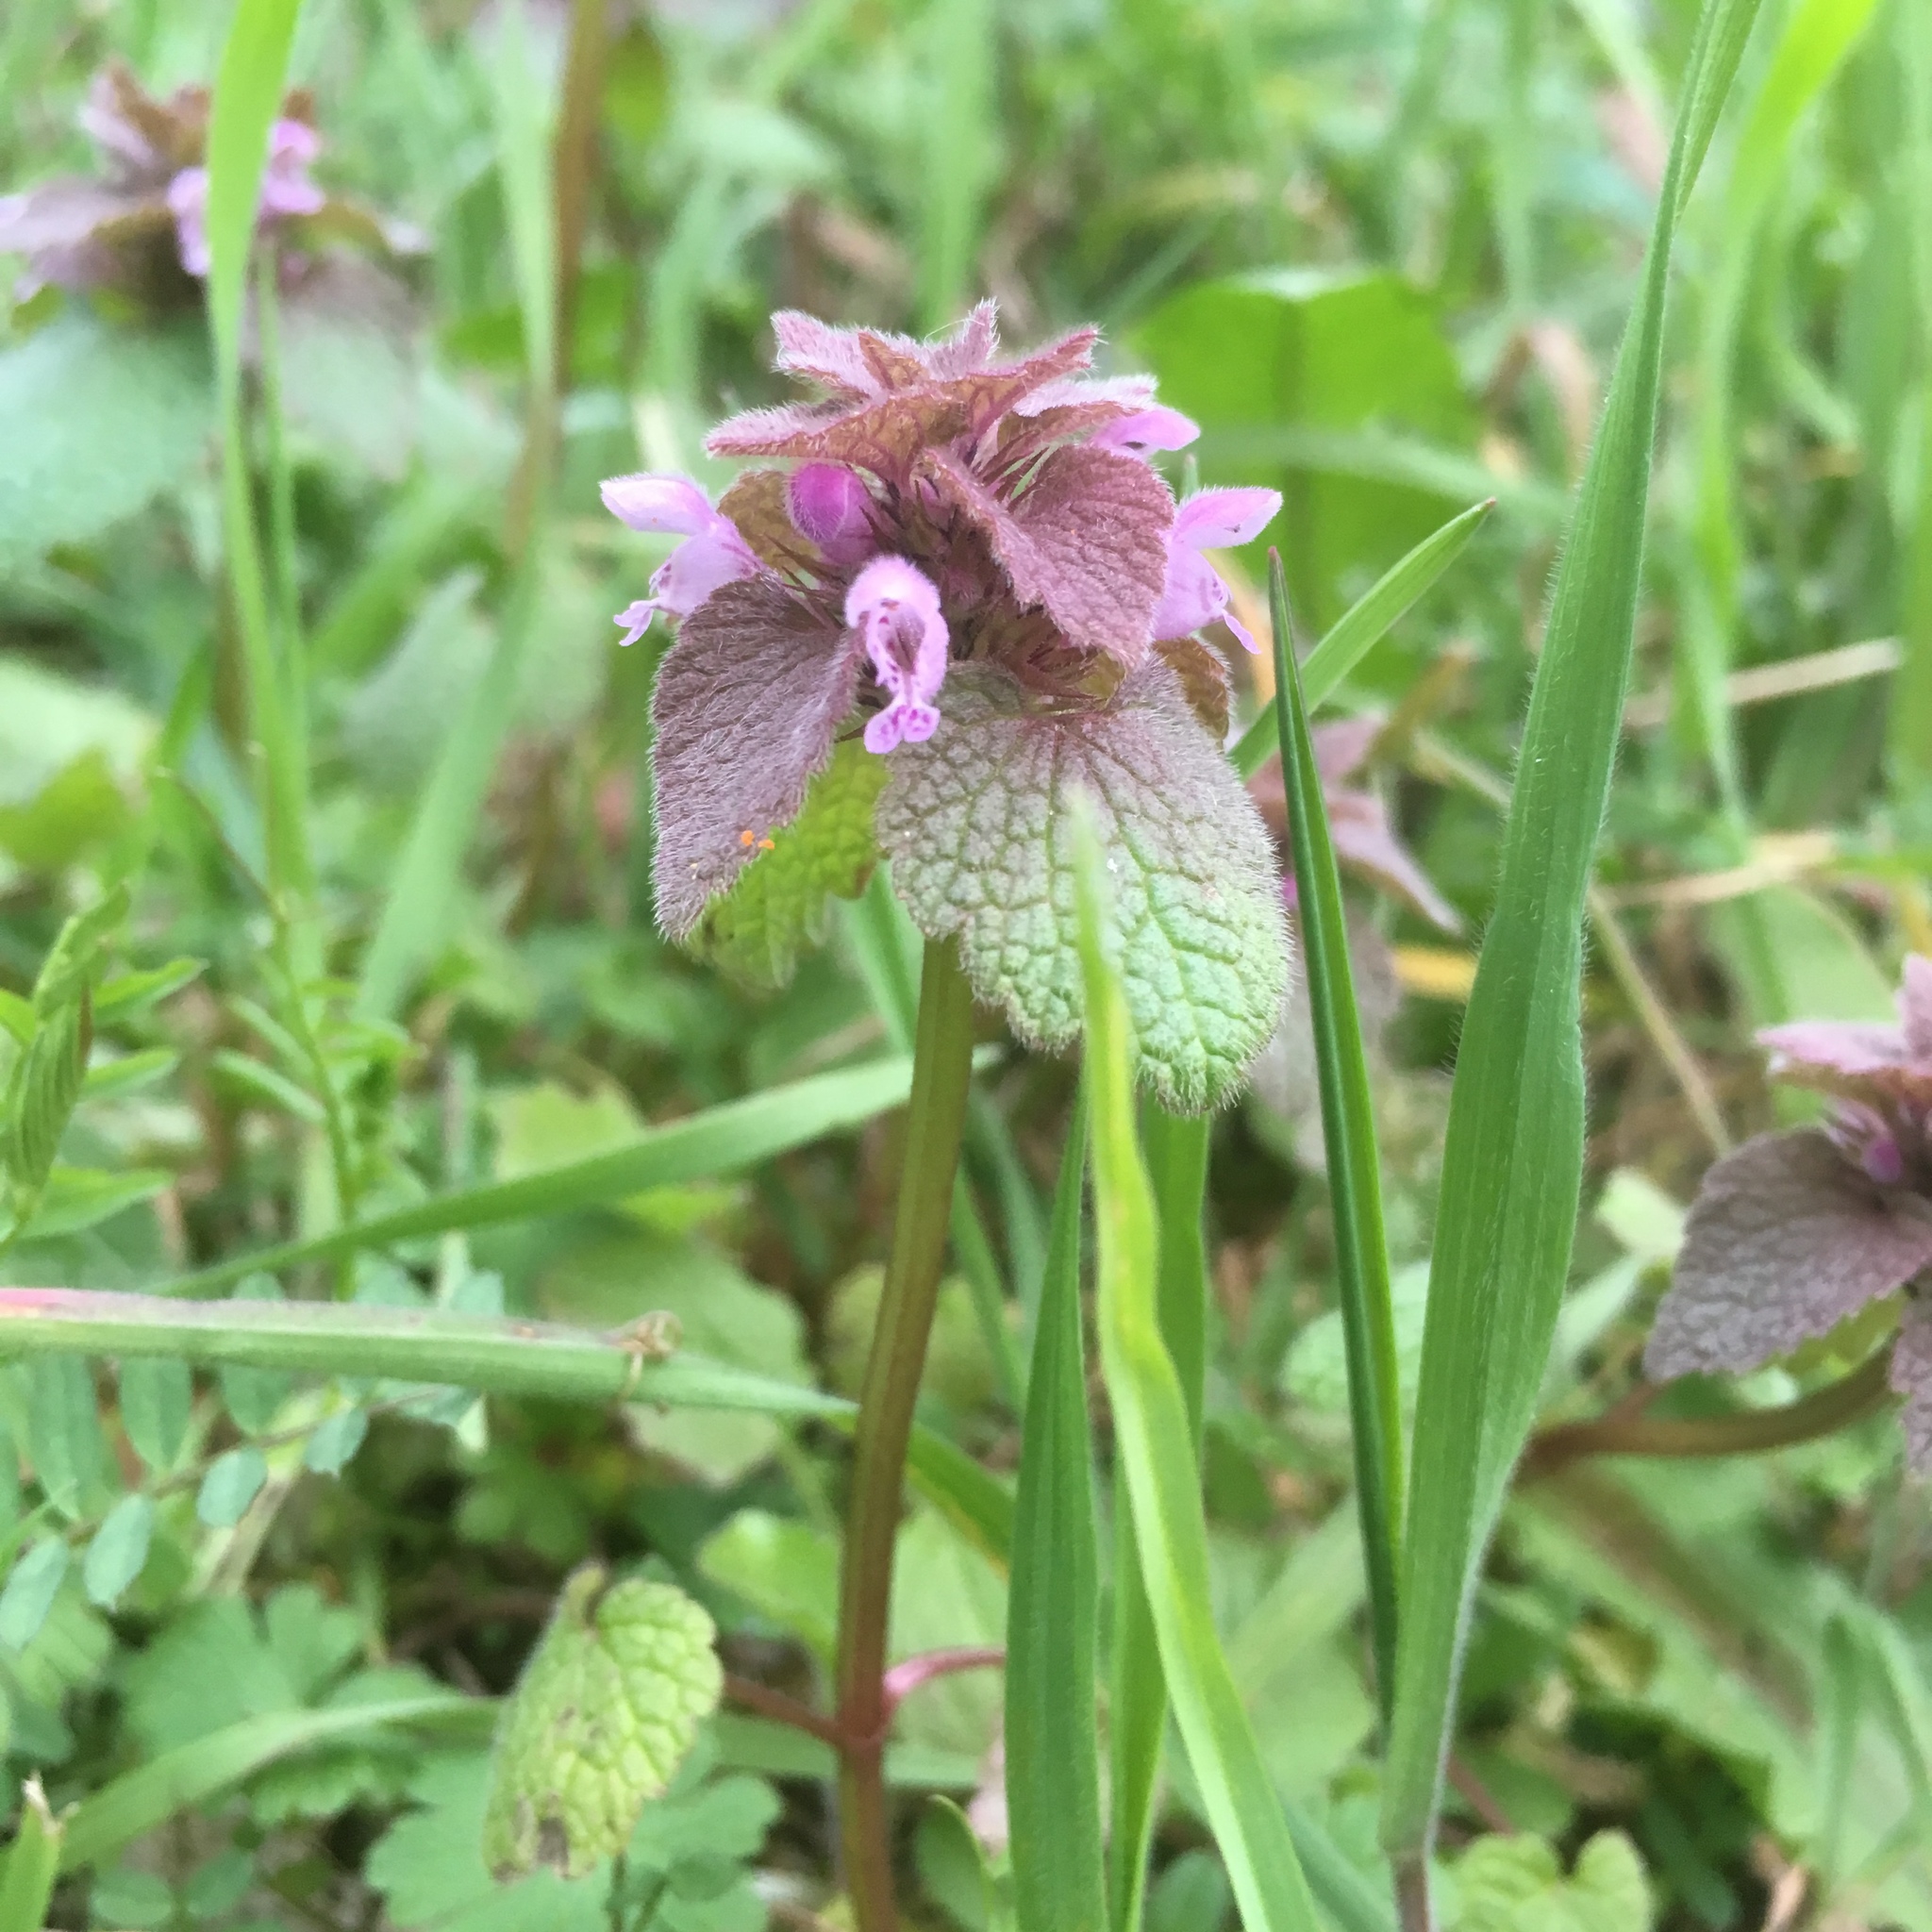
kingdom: Plantae
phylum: Tracheophyta
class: Magnoliopsida
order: Lamiales
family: Lamiaceae
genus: Lamium
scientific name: Lamium purpureum
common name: Red dead-nettle
